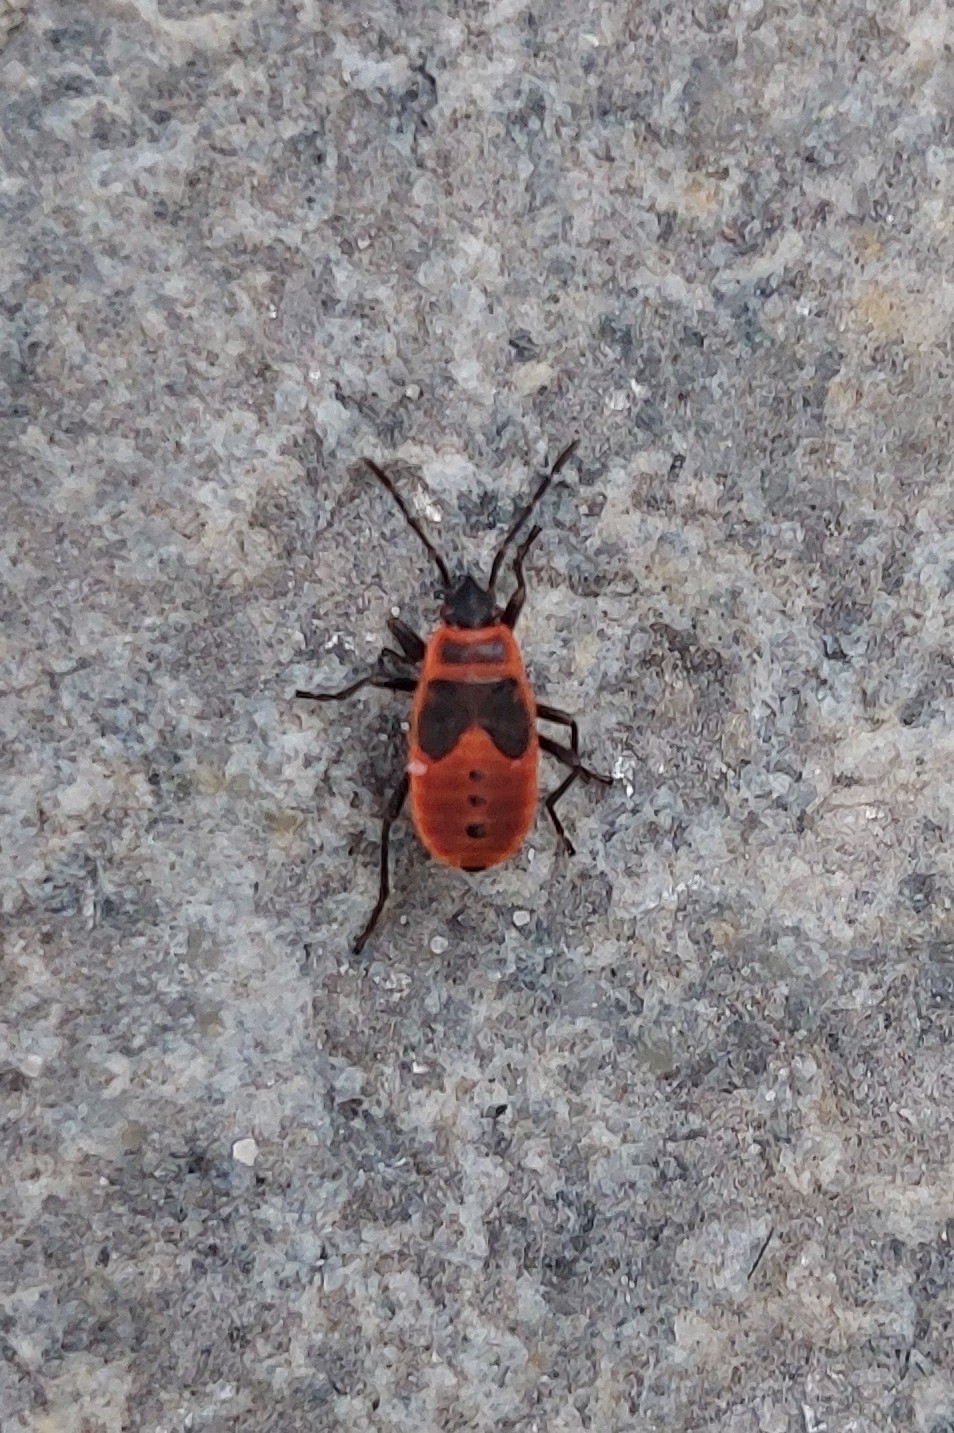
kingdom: Animalia
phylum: Arthropoda
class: Insecta
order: Hemiptera
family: Pyrrhocoridae
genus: Pyrrhocoris
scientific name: Pyrrhocoris apterus
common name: Firebug
